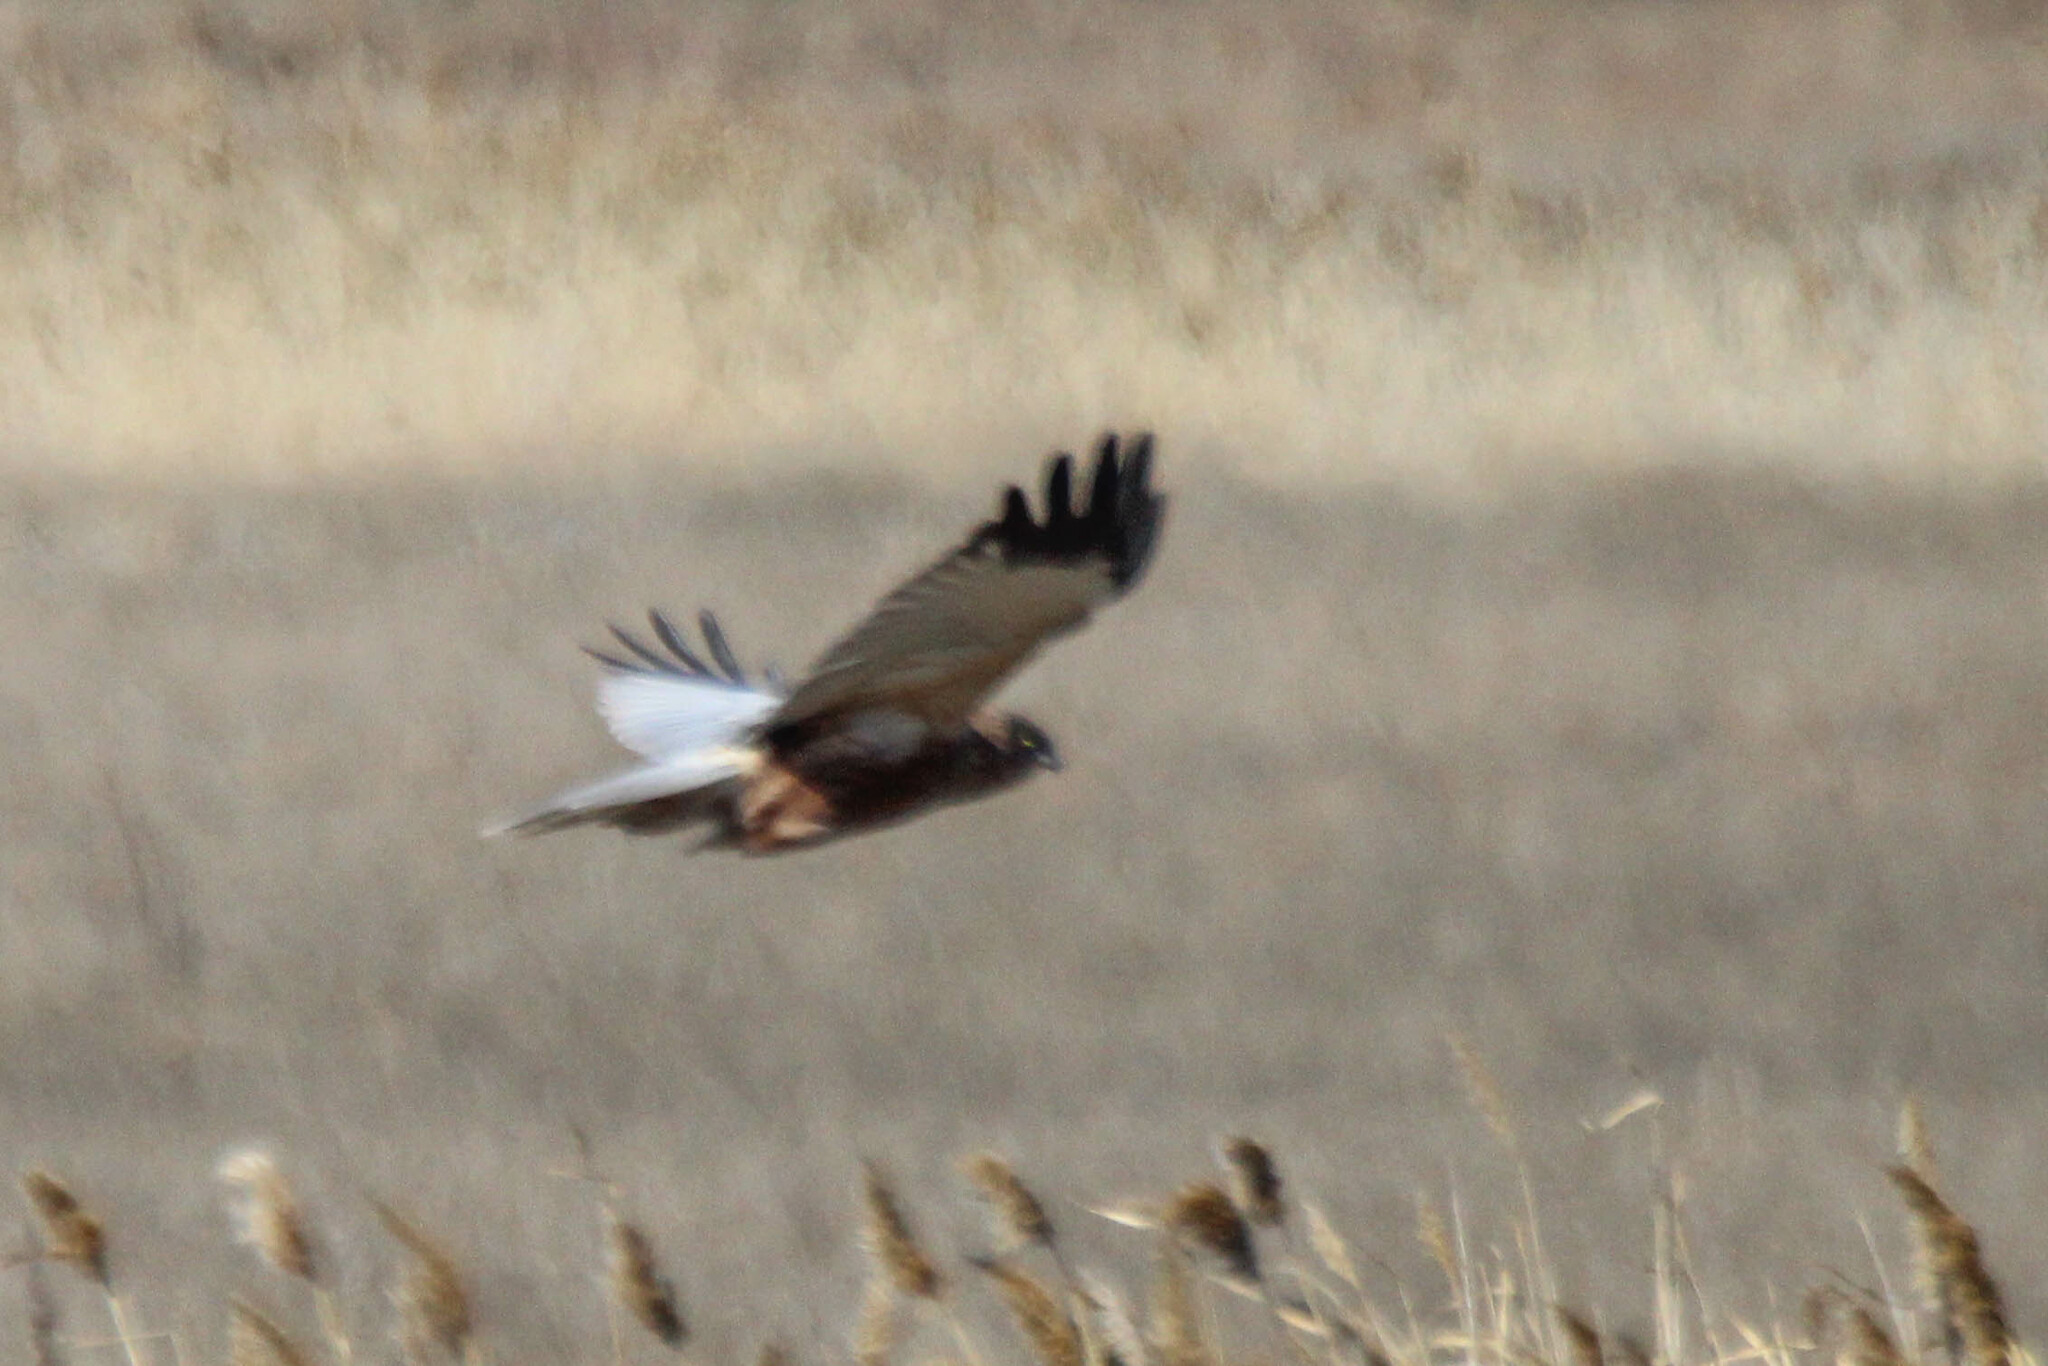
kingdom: Animalia
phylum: Chordata
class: Aves
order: Accipitriformes
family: Accipitridae
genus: Circus
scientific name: Circus aeruginosus
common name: Western marsh harrier
